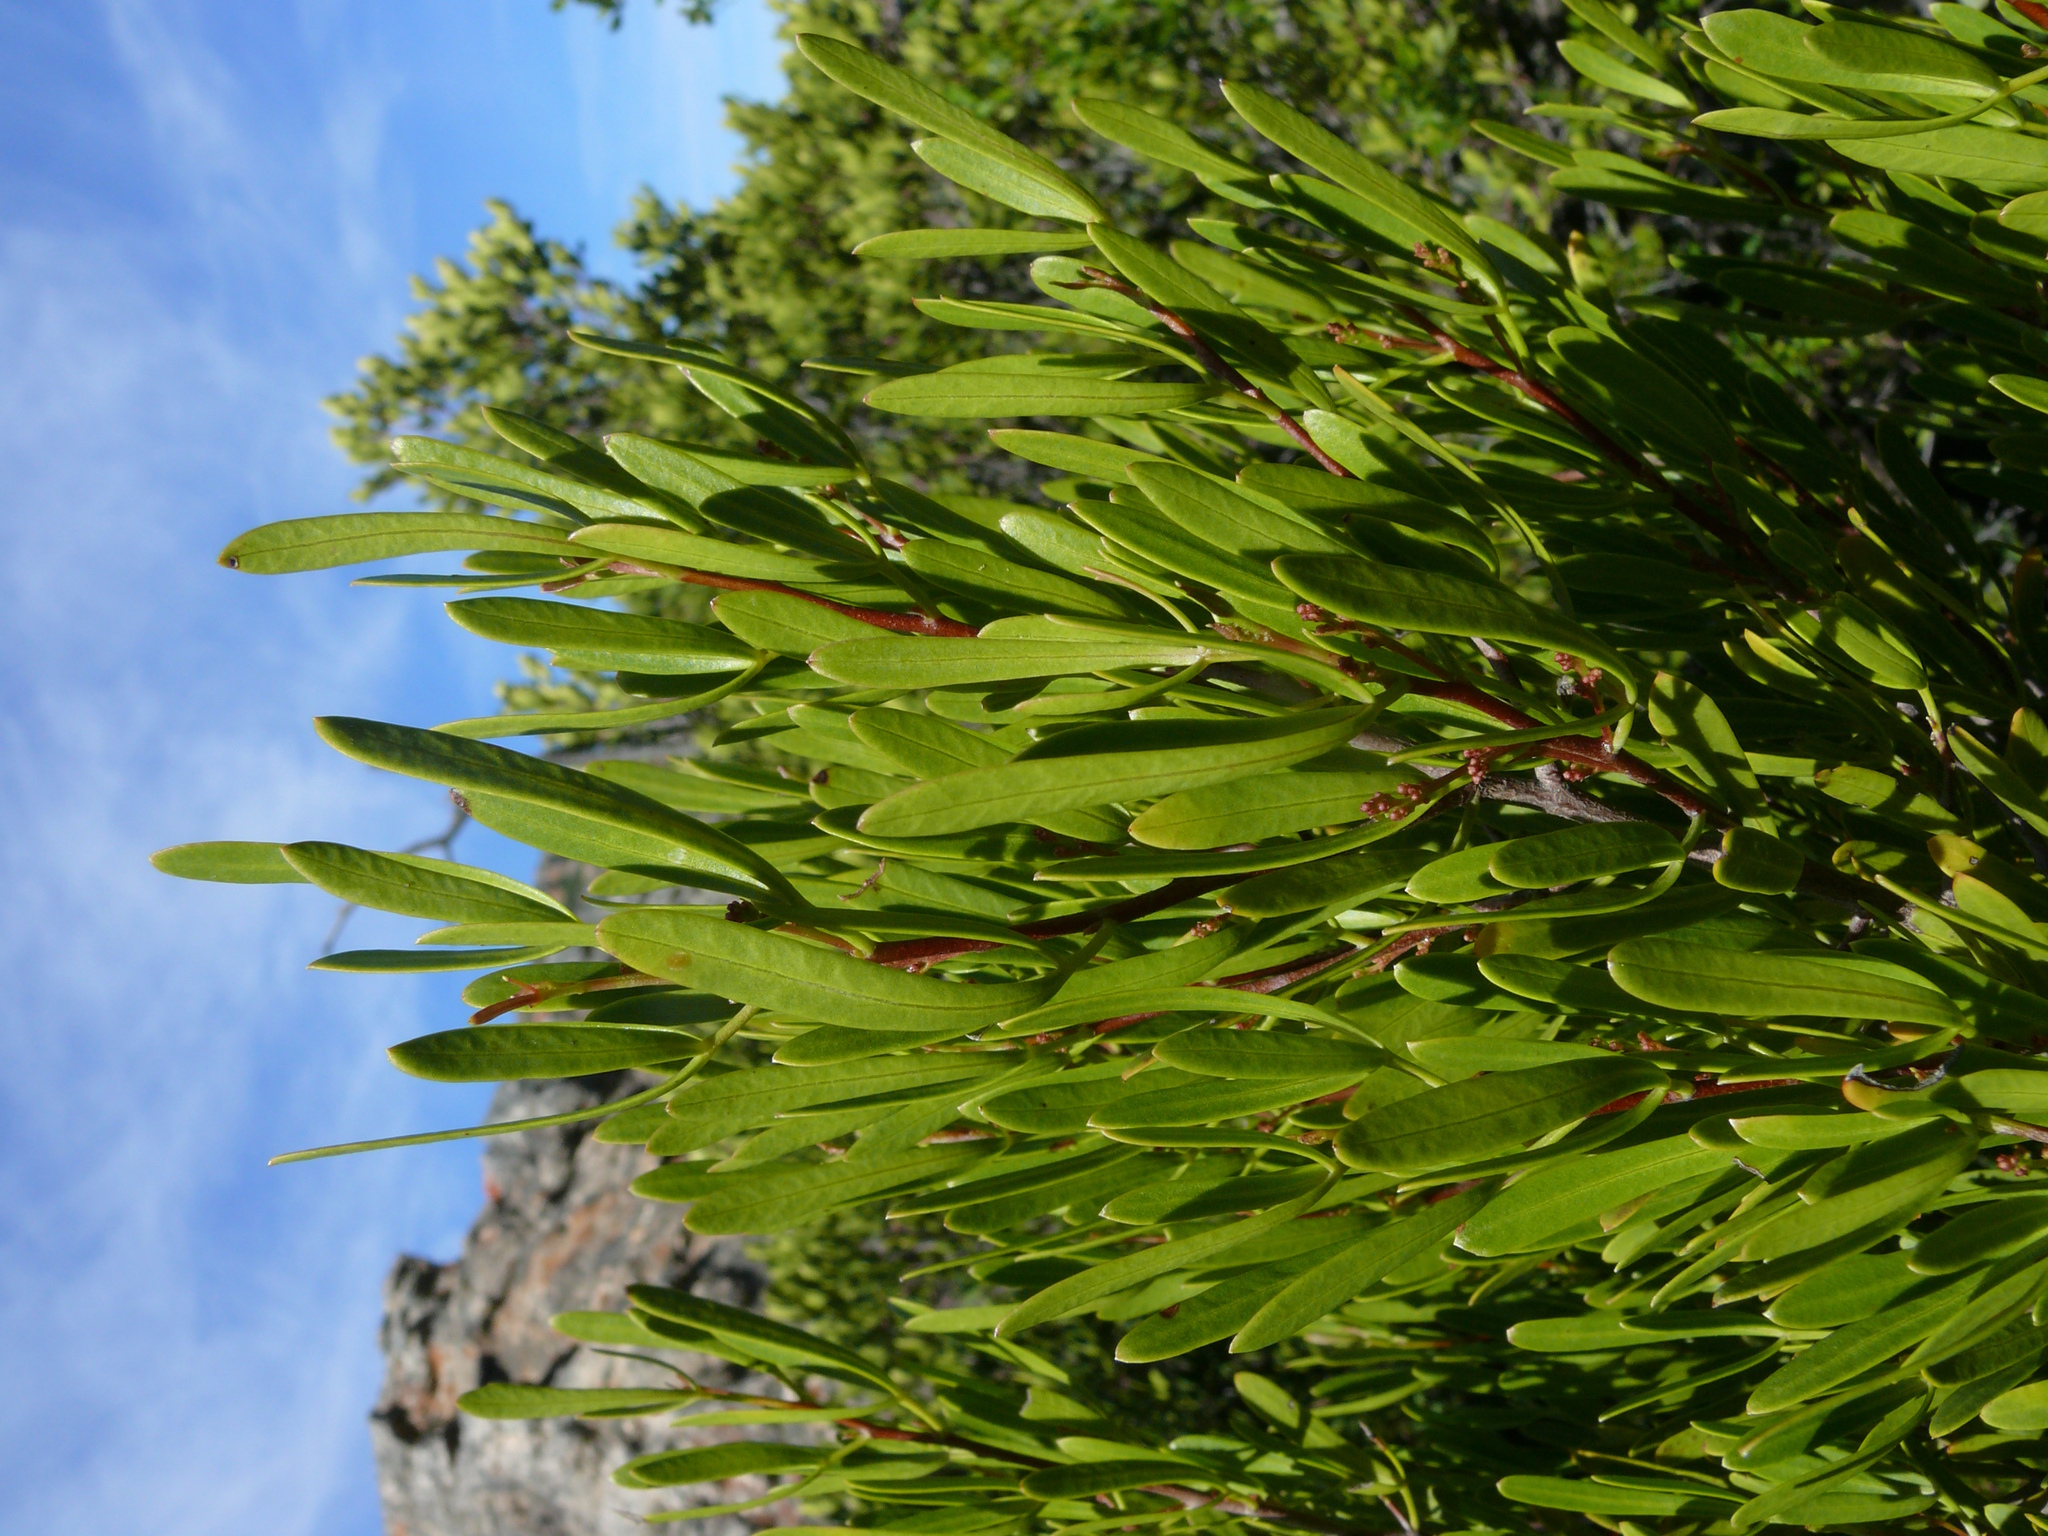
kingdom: Plantae
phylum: Tracheophyta
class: Magnoliopsida
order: Sapindales
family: Anacardiaceae
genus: Searsia
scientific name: Searsia rimosa
